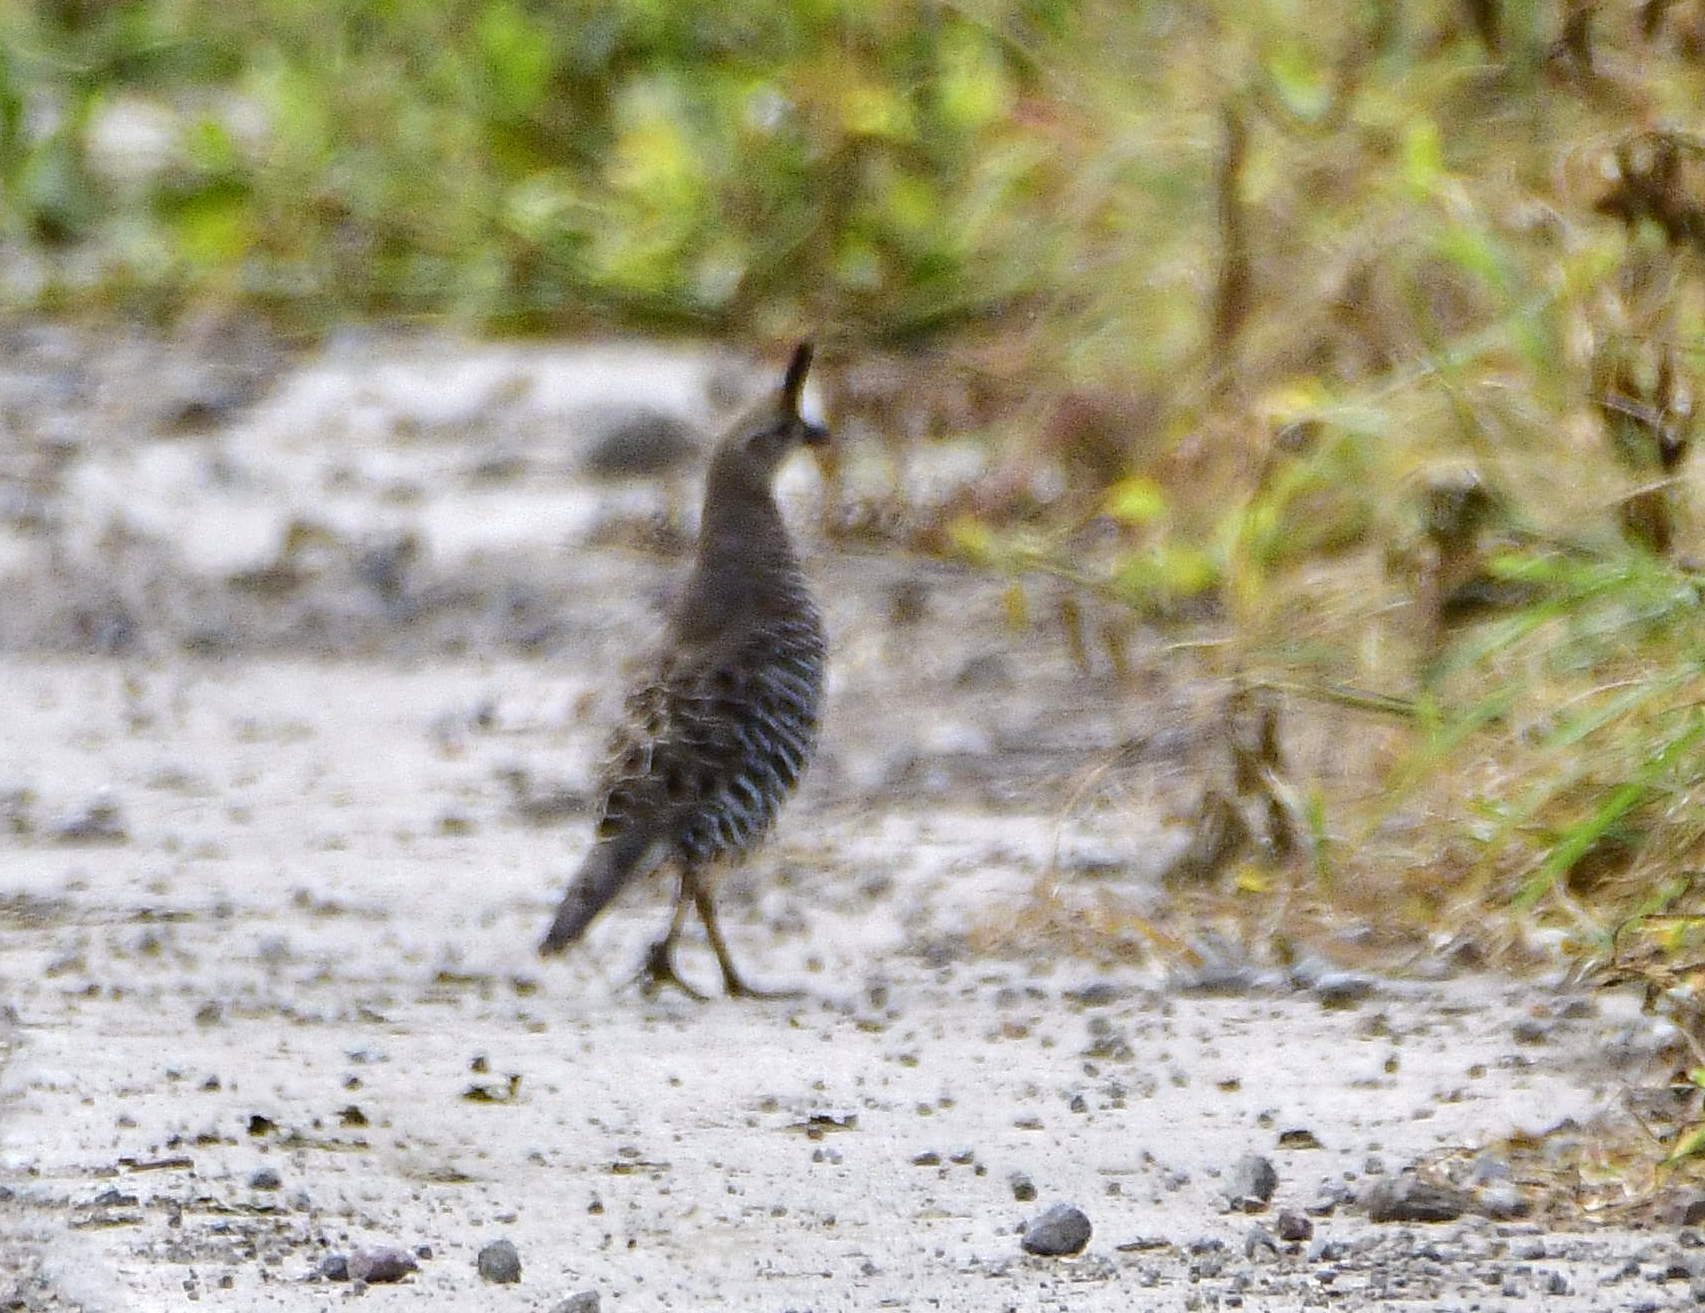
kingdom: Animalia
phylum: Chordata
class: Aves
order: Galliformes
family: Odontophoridae
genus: Philortyx
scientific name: Philortyx fasciatus
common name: Banded quail
